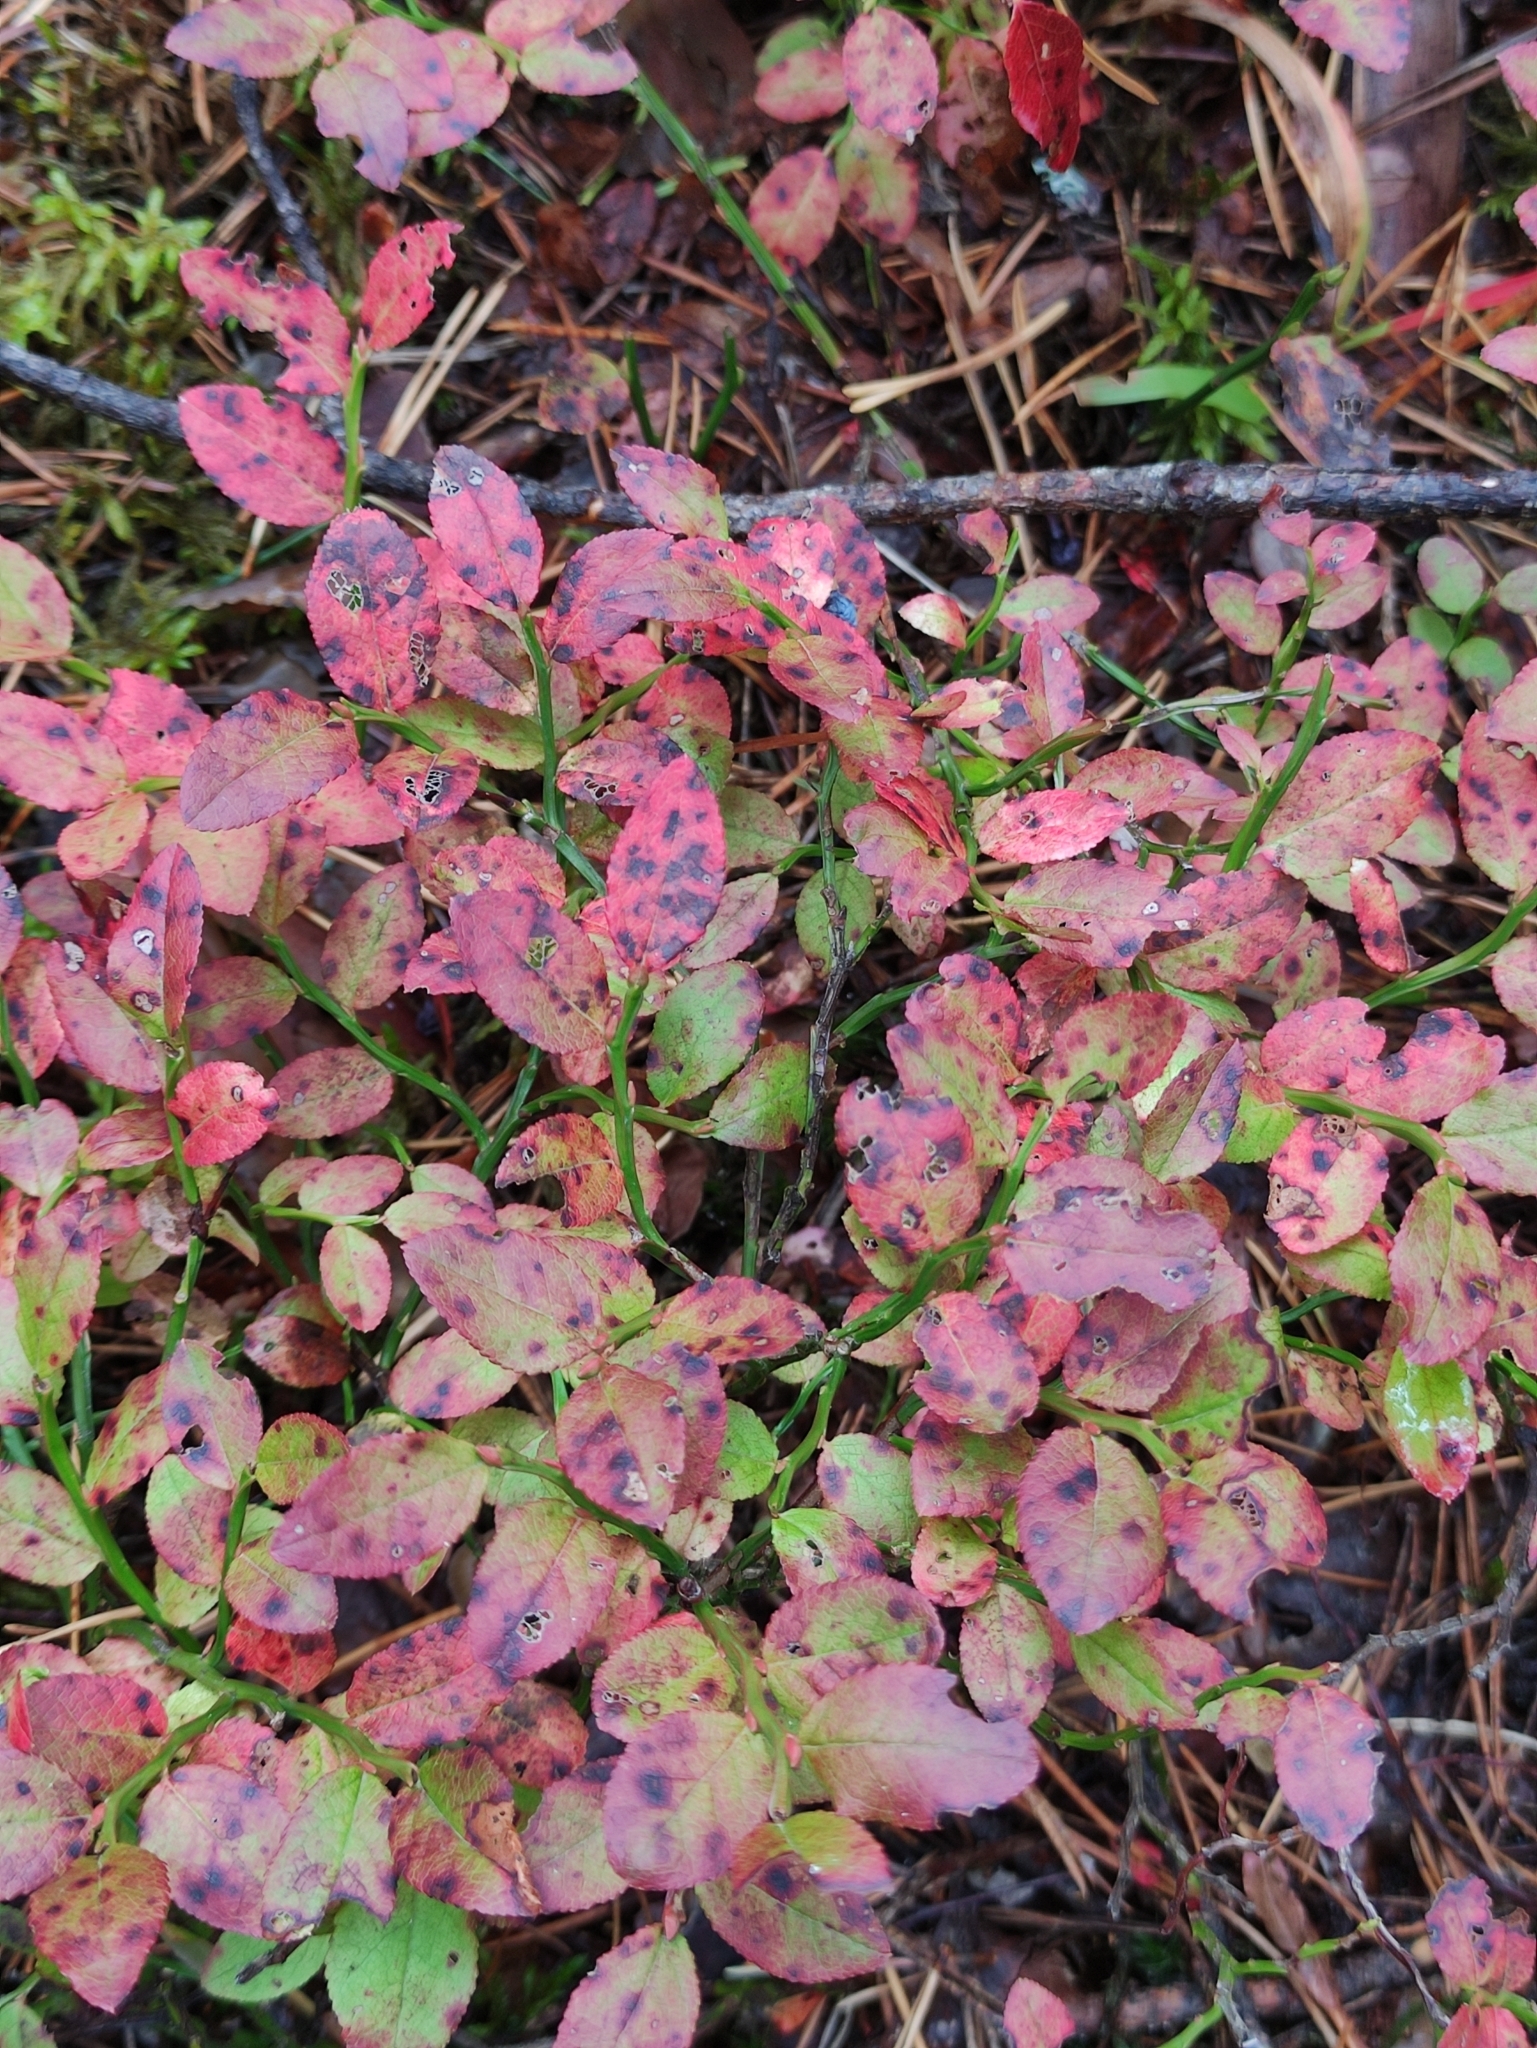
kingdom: Plantae
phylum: Tracheophyta
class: Magnoliopsida
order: Ericales
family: Ericaceae
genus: Vaccinium
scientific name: Vaccinium myrtillus
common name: Bilberry
